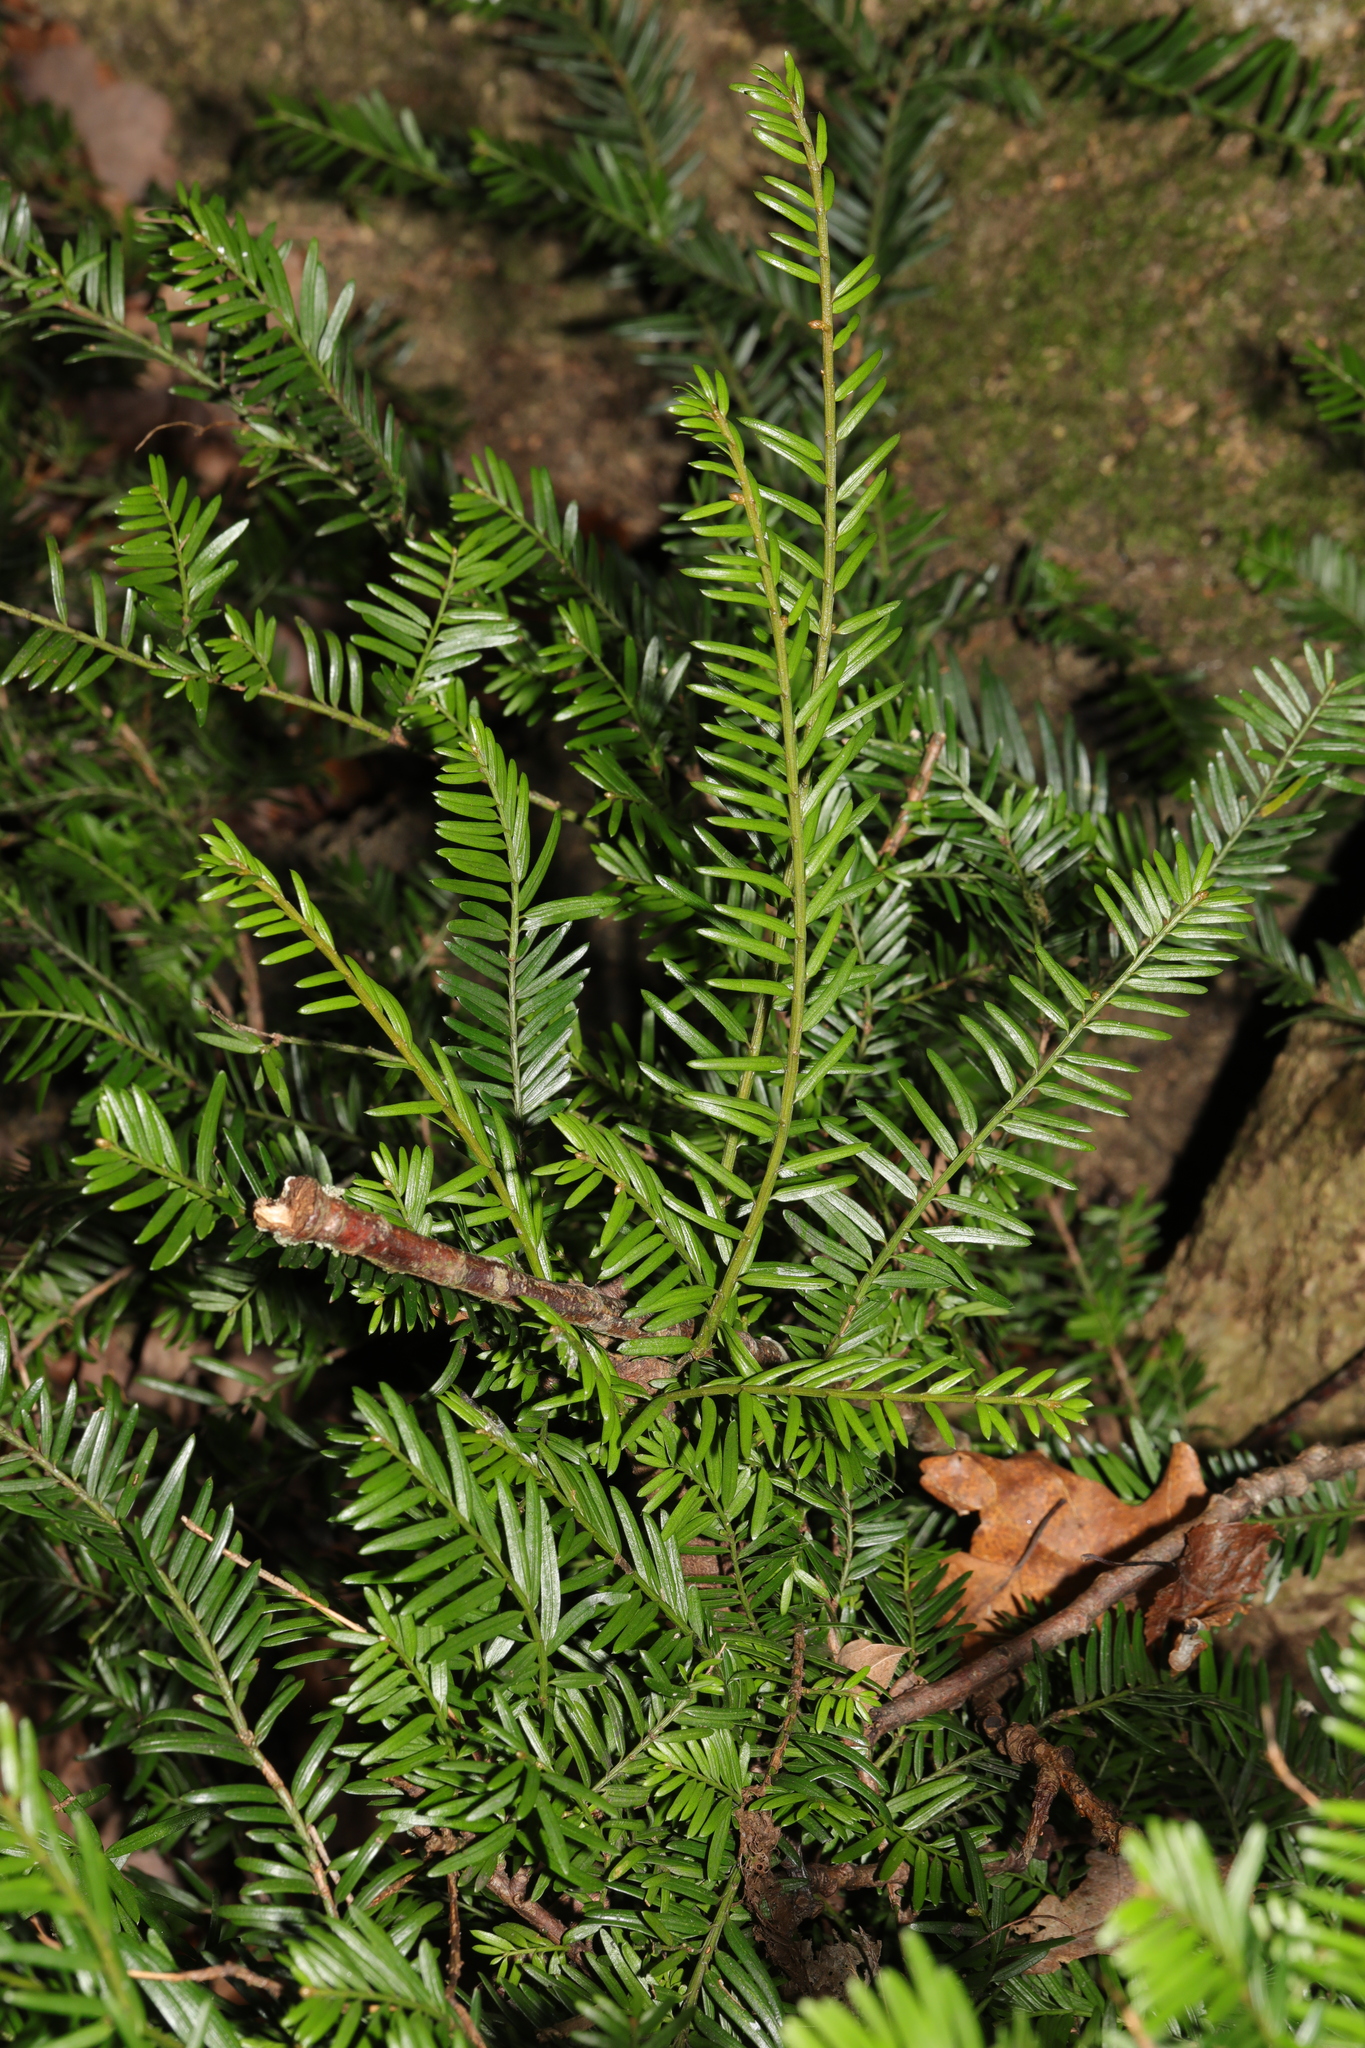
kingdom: Plantae
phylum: Tracheophyta
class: Pinopsida
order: Pinales
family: Taxaceae
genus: Taxus
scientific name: Taxus baccata
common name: Yew
